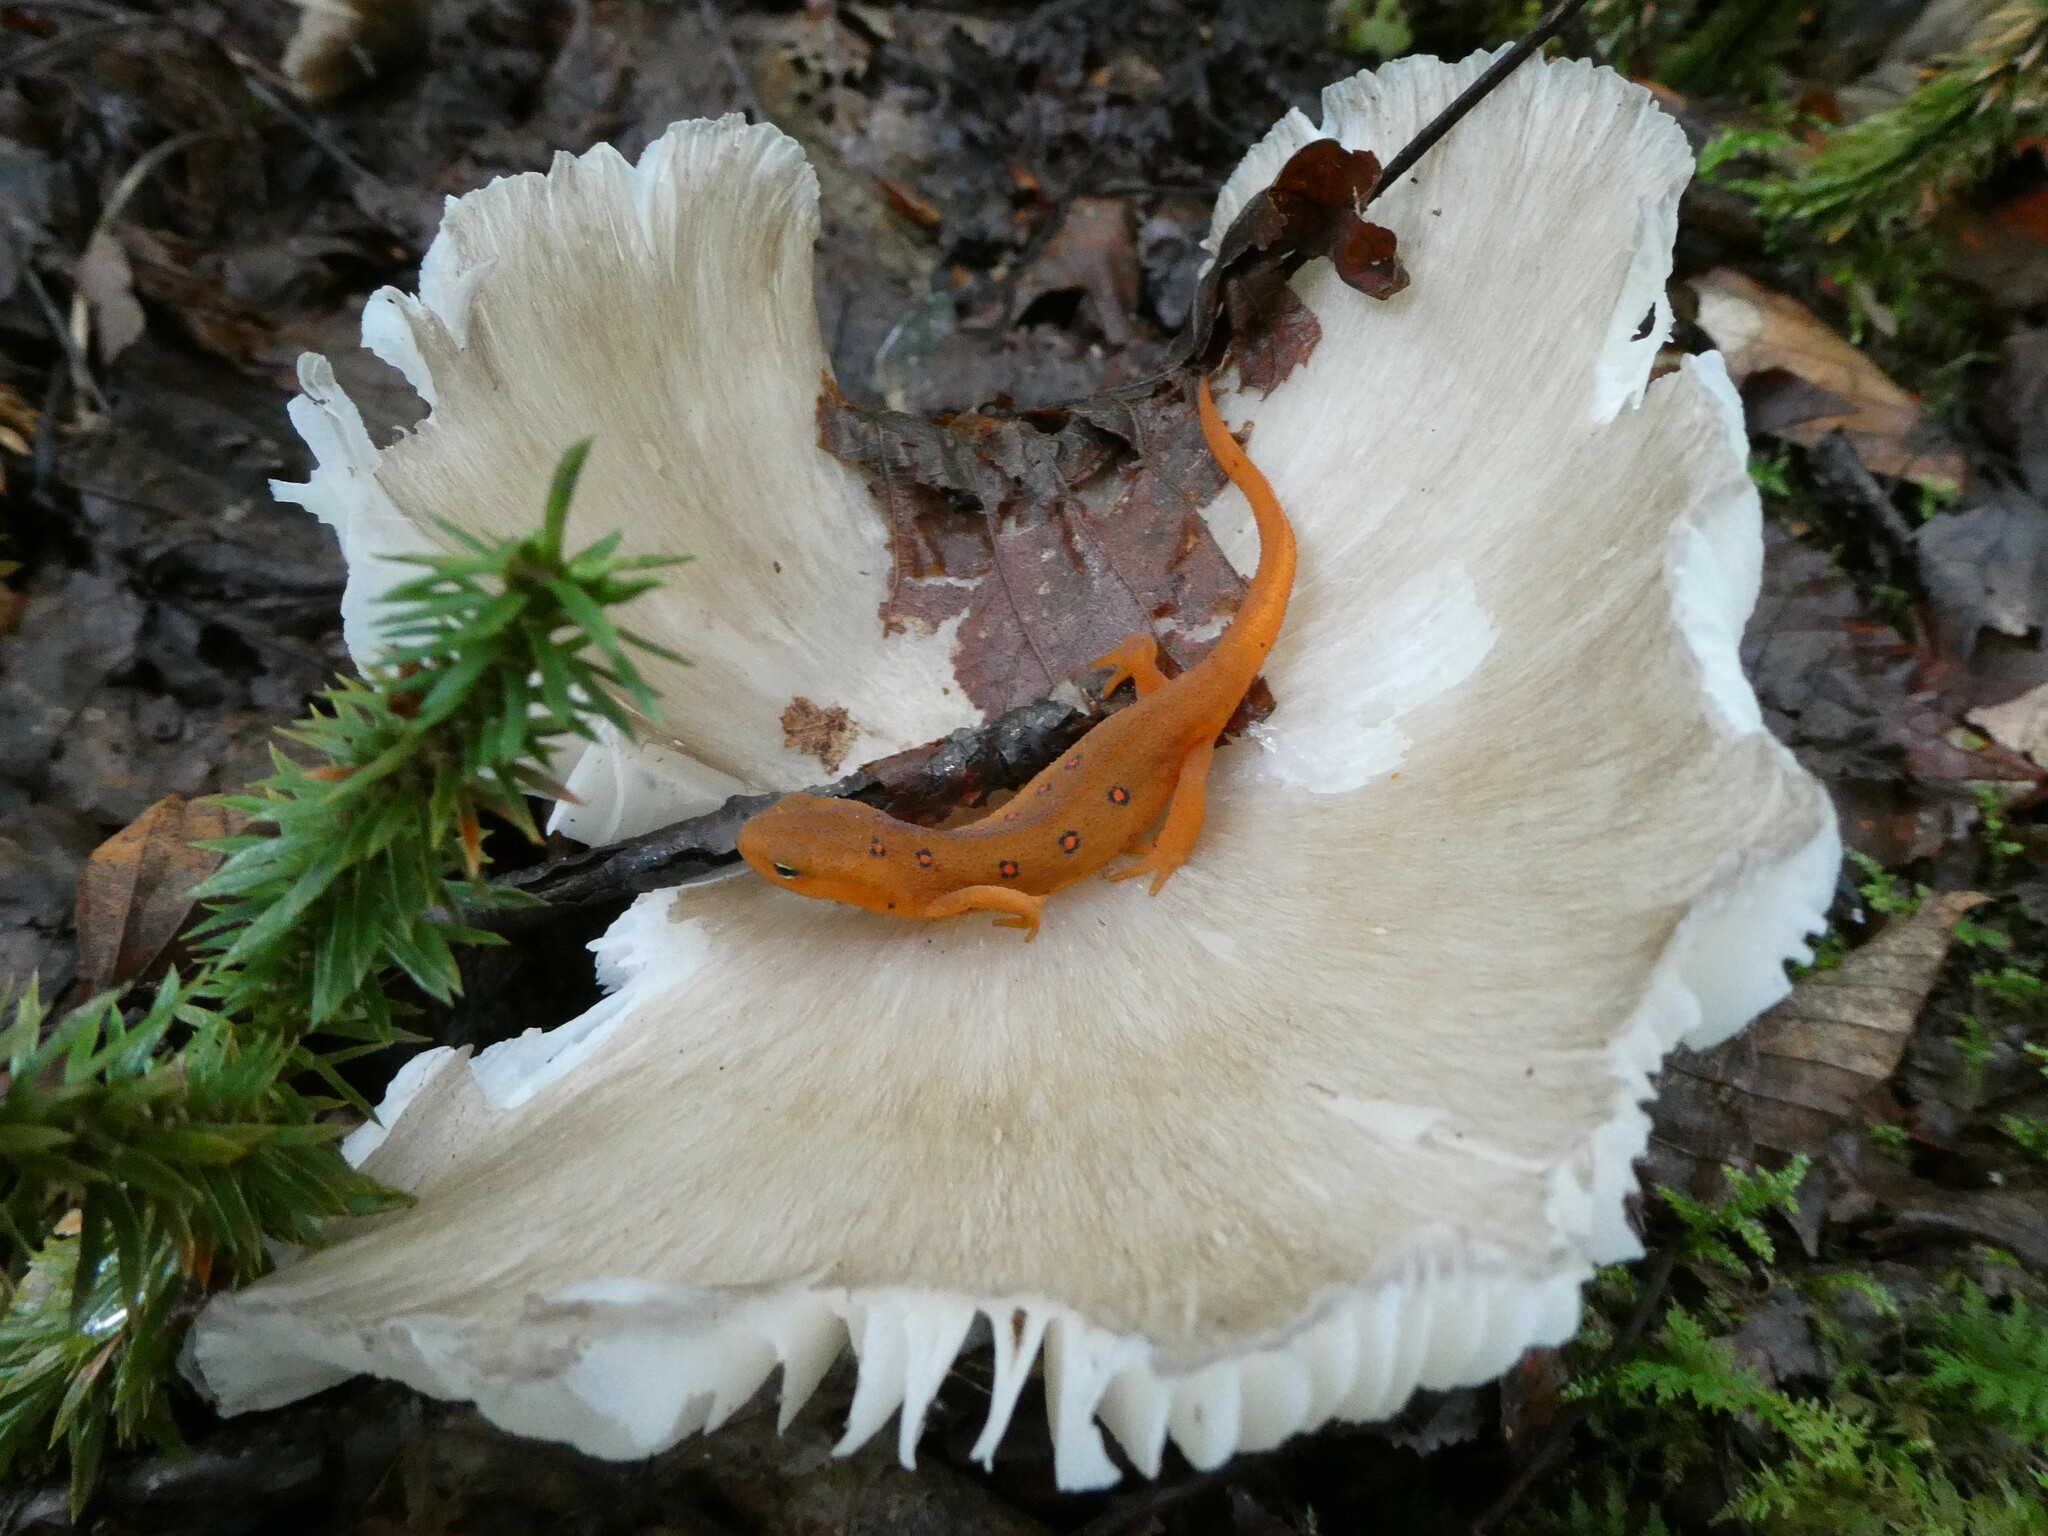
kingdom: Animalia
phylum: Chordata
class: Amphibia
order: Caudata
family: Salamandridae
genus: Notophthalmus
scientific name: Notophthalmus viridescens
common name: Eastern newt
